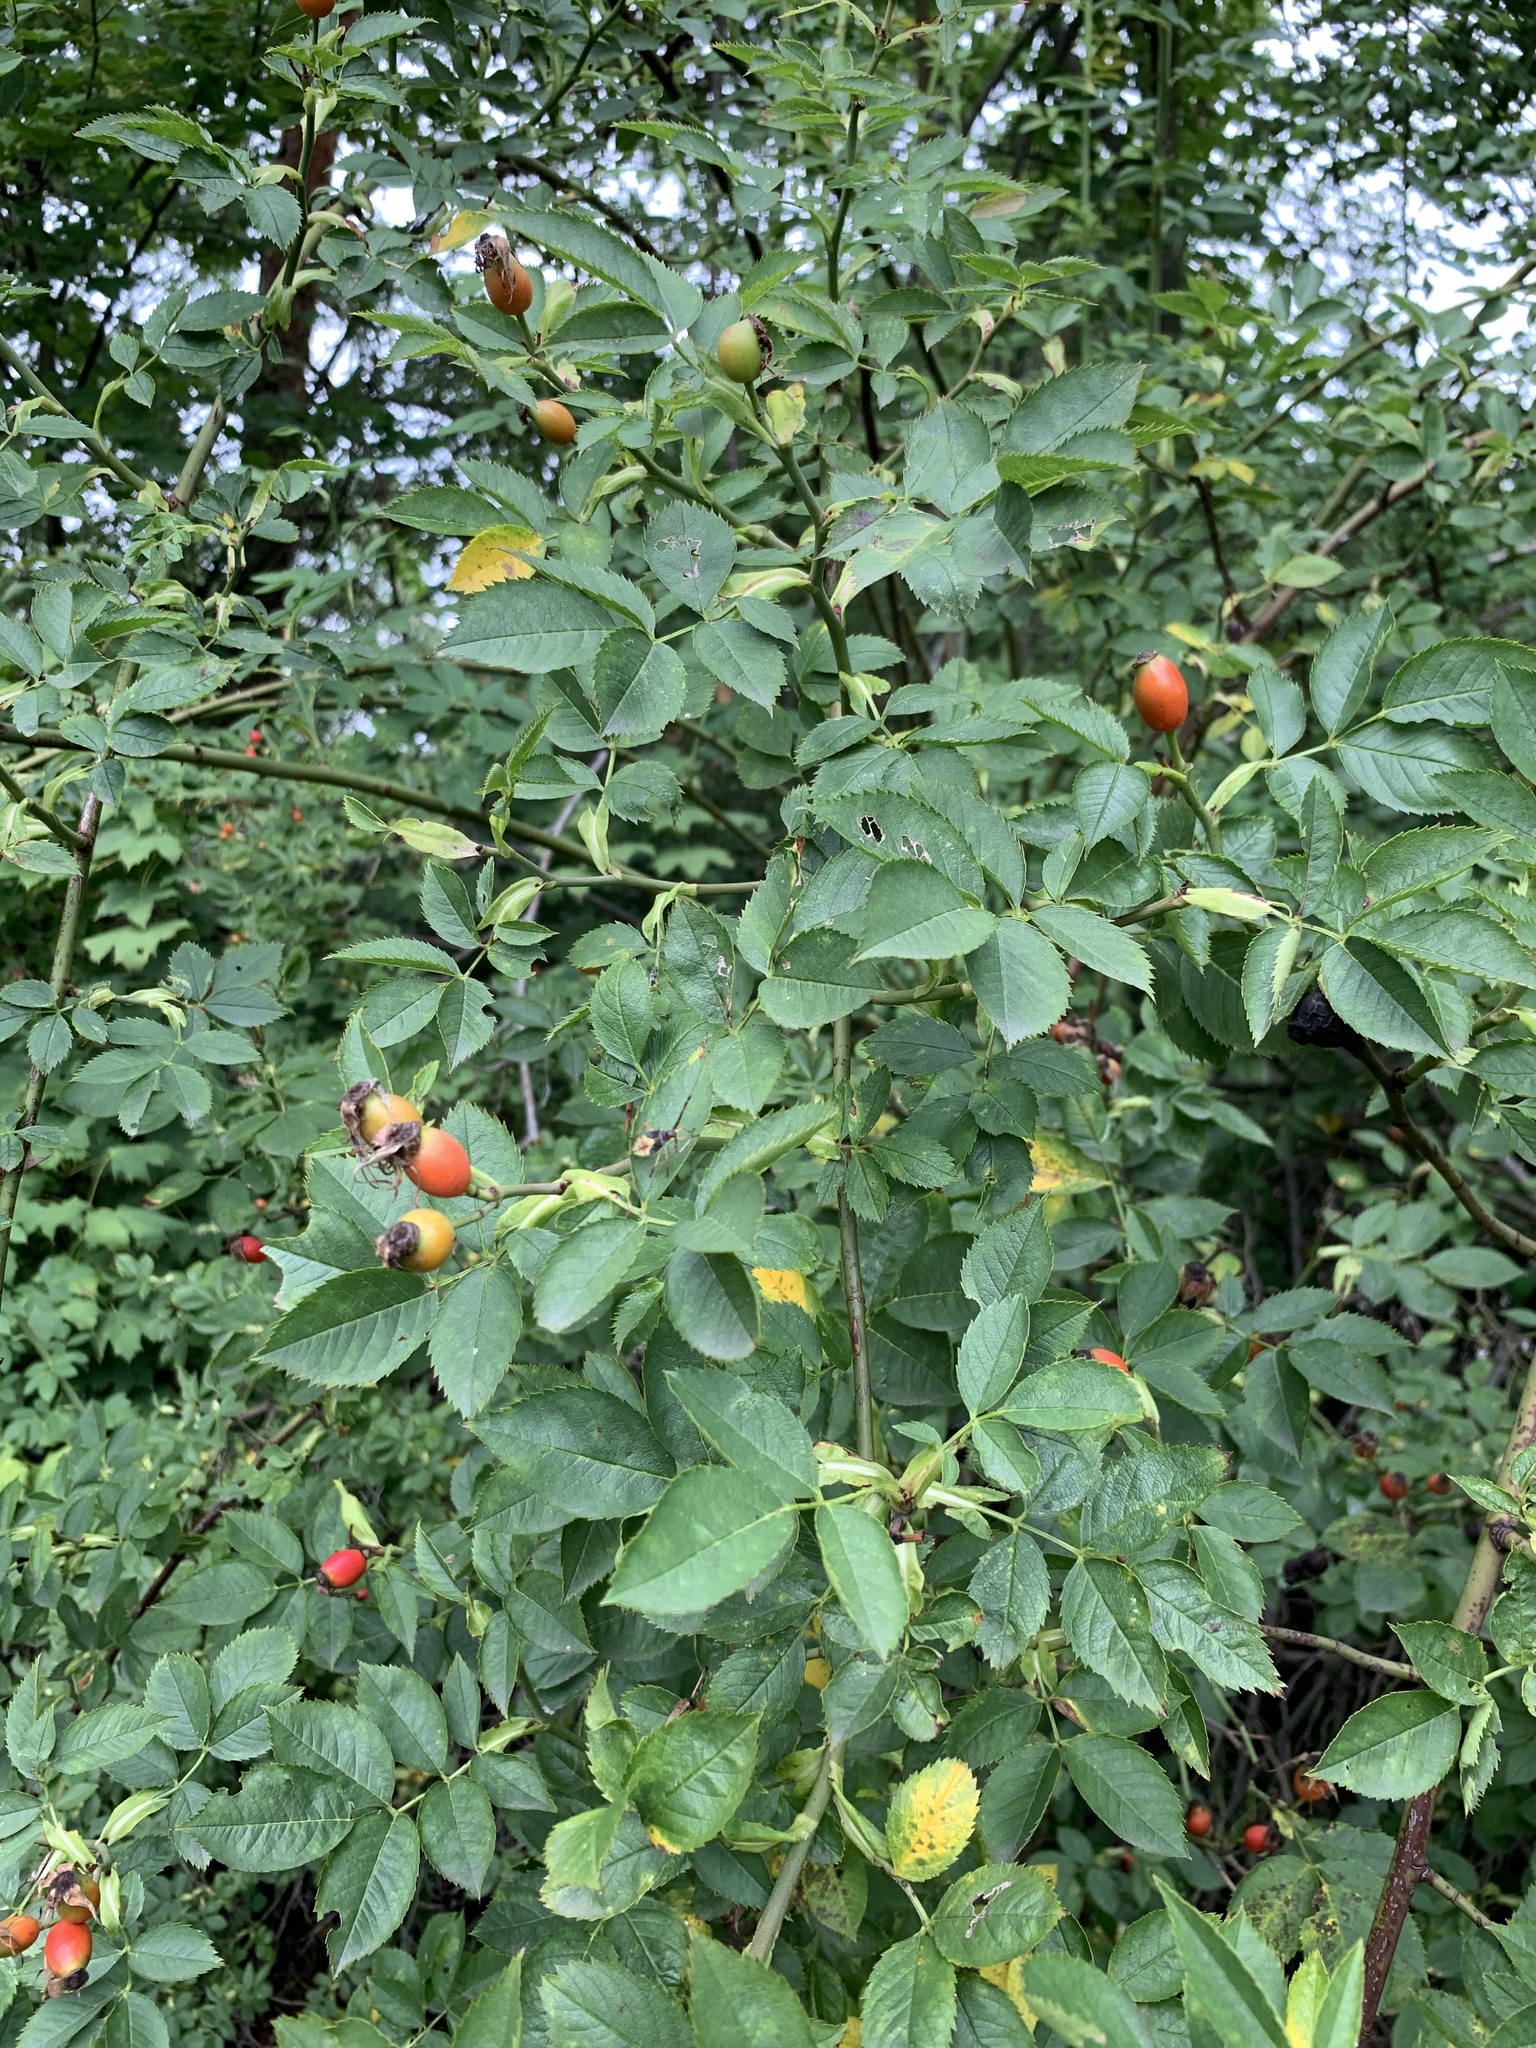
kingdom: Plantae
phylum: Tracheophyta
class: Magnoliopsida
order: Rosales
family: Rosaceae
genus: Rosa
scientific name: Rosa canina
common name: Dog rose
